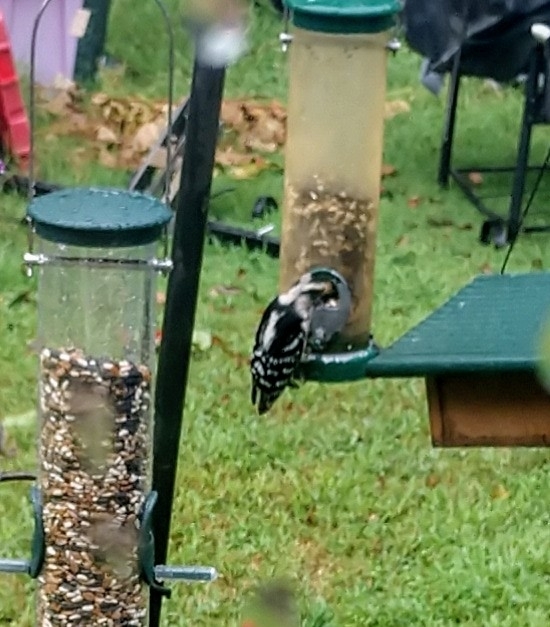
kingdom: Animalia
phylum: Chordata
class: Aves
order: Piciformes
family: Picidae
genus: Dryobates
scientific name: Dryobates pubescens
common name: Downy woodpecker
